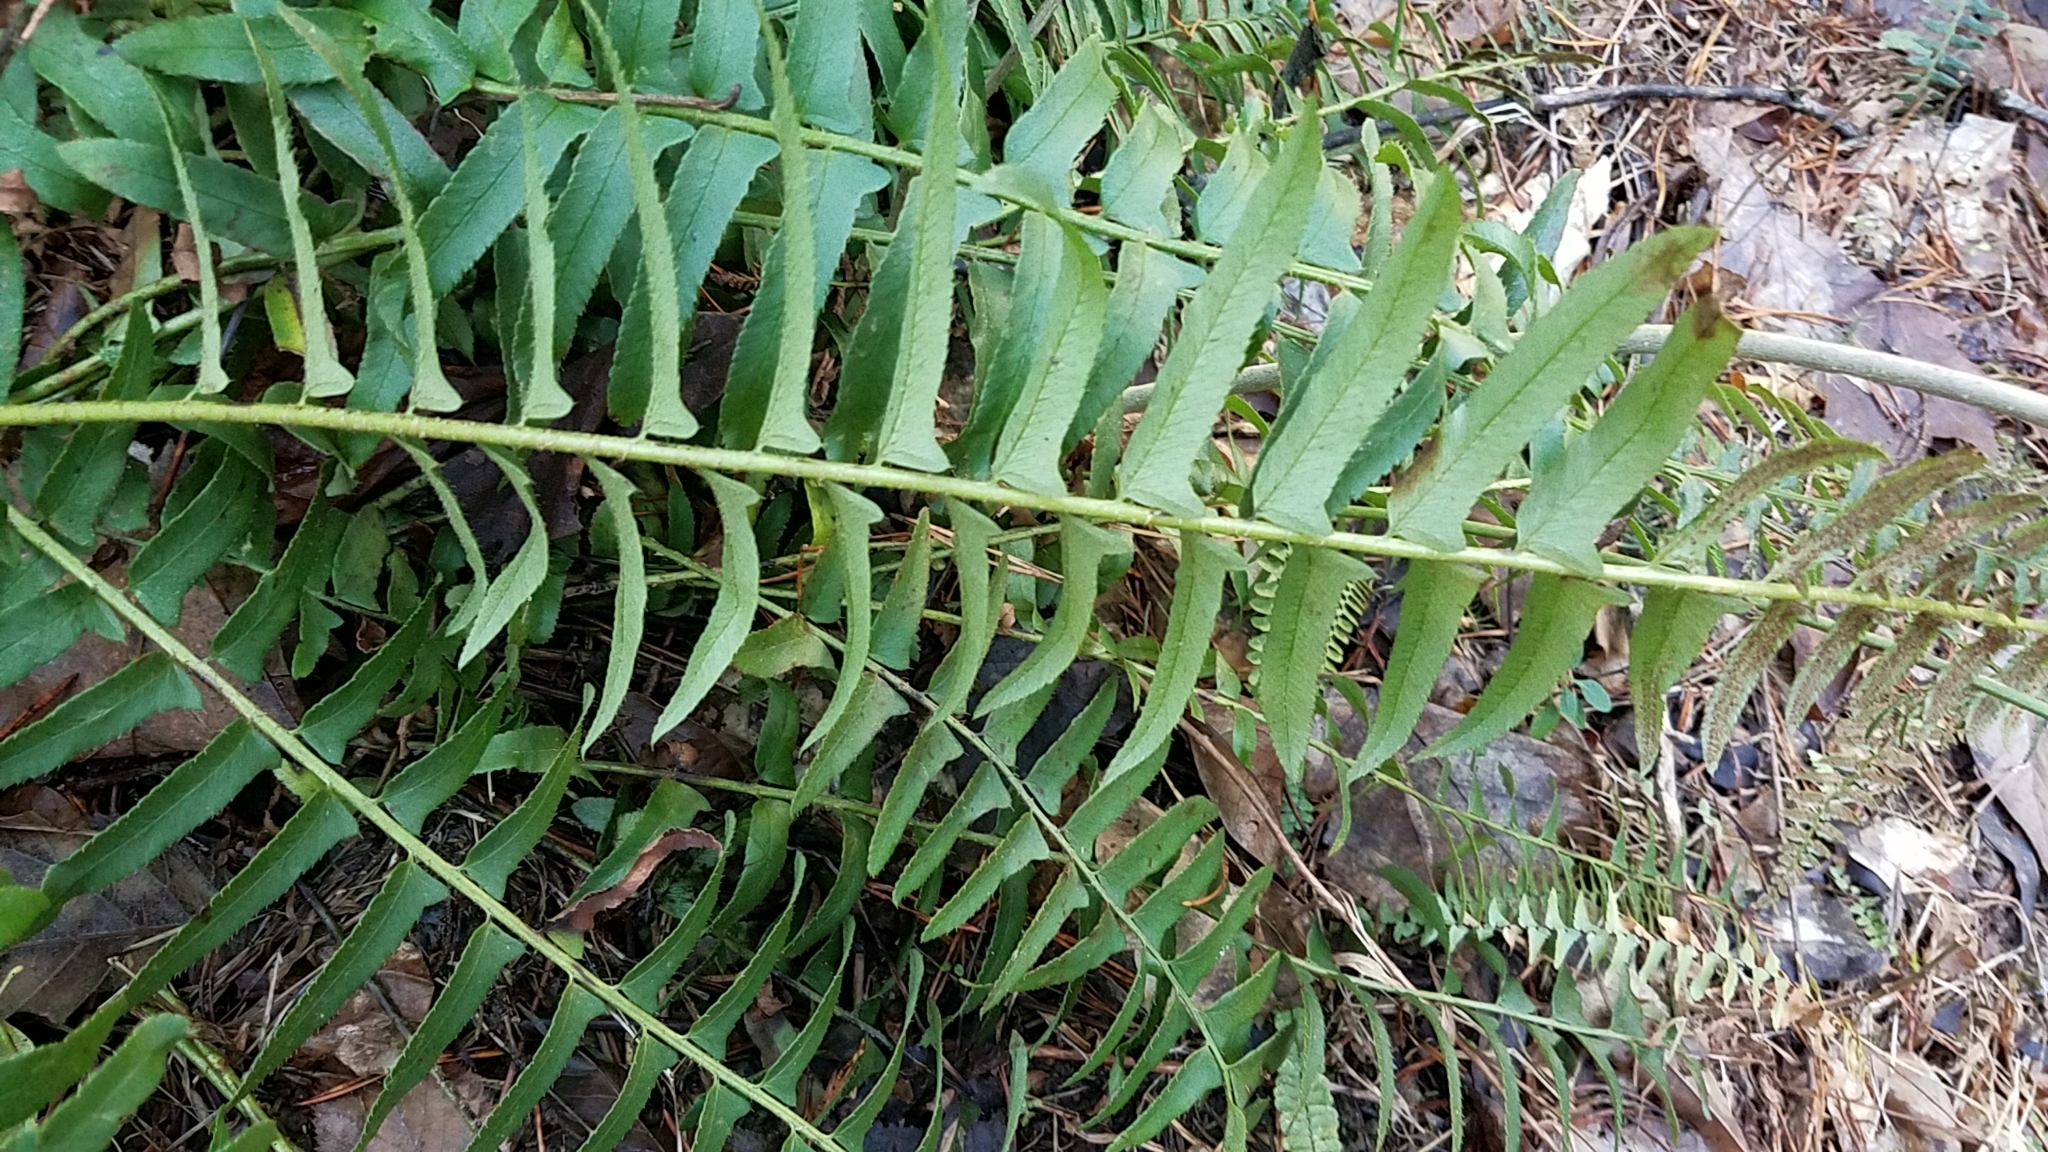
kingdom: Plantae
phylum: Tracheophyta
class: Polypodiopsida
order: Polypodiales
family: Dryopteridaceae
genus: Polystichum
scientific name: Polystichum acrostichoides
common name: Christmas fern
